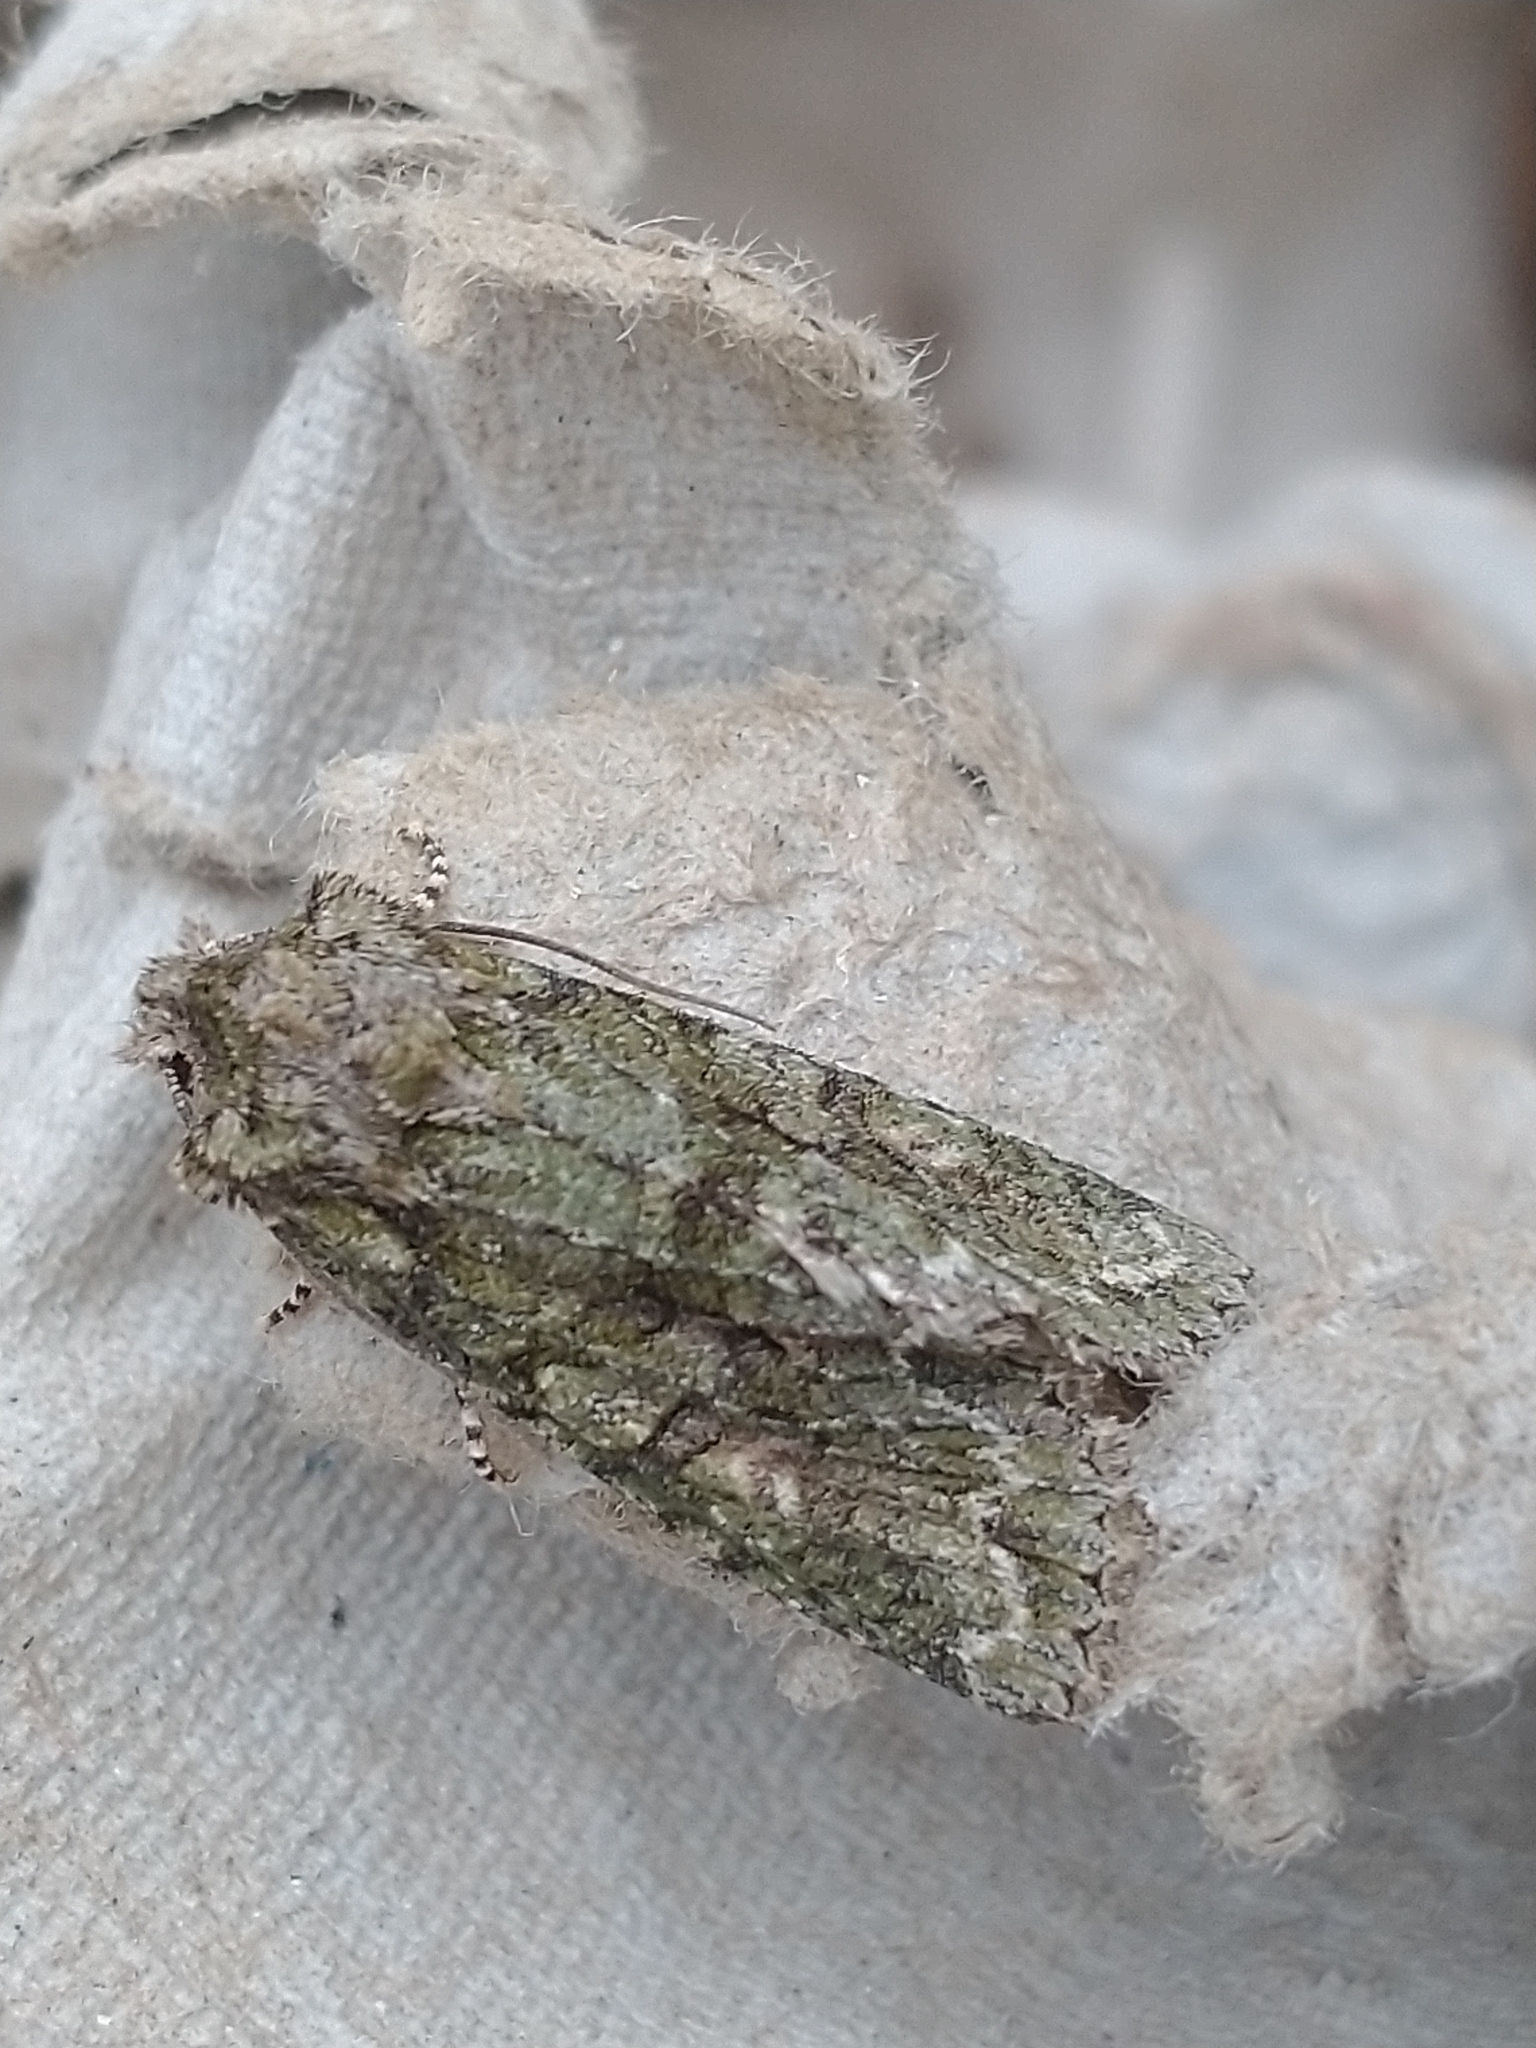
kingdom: Animalia
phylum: Arthropoda
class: Insecta
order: Lepidoptera
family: Noctuidae
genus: Dryobotodes
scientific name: Dryobotodes eremita
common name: Brindled green
